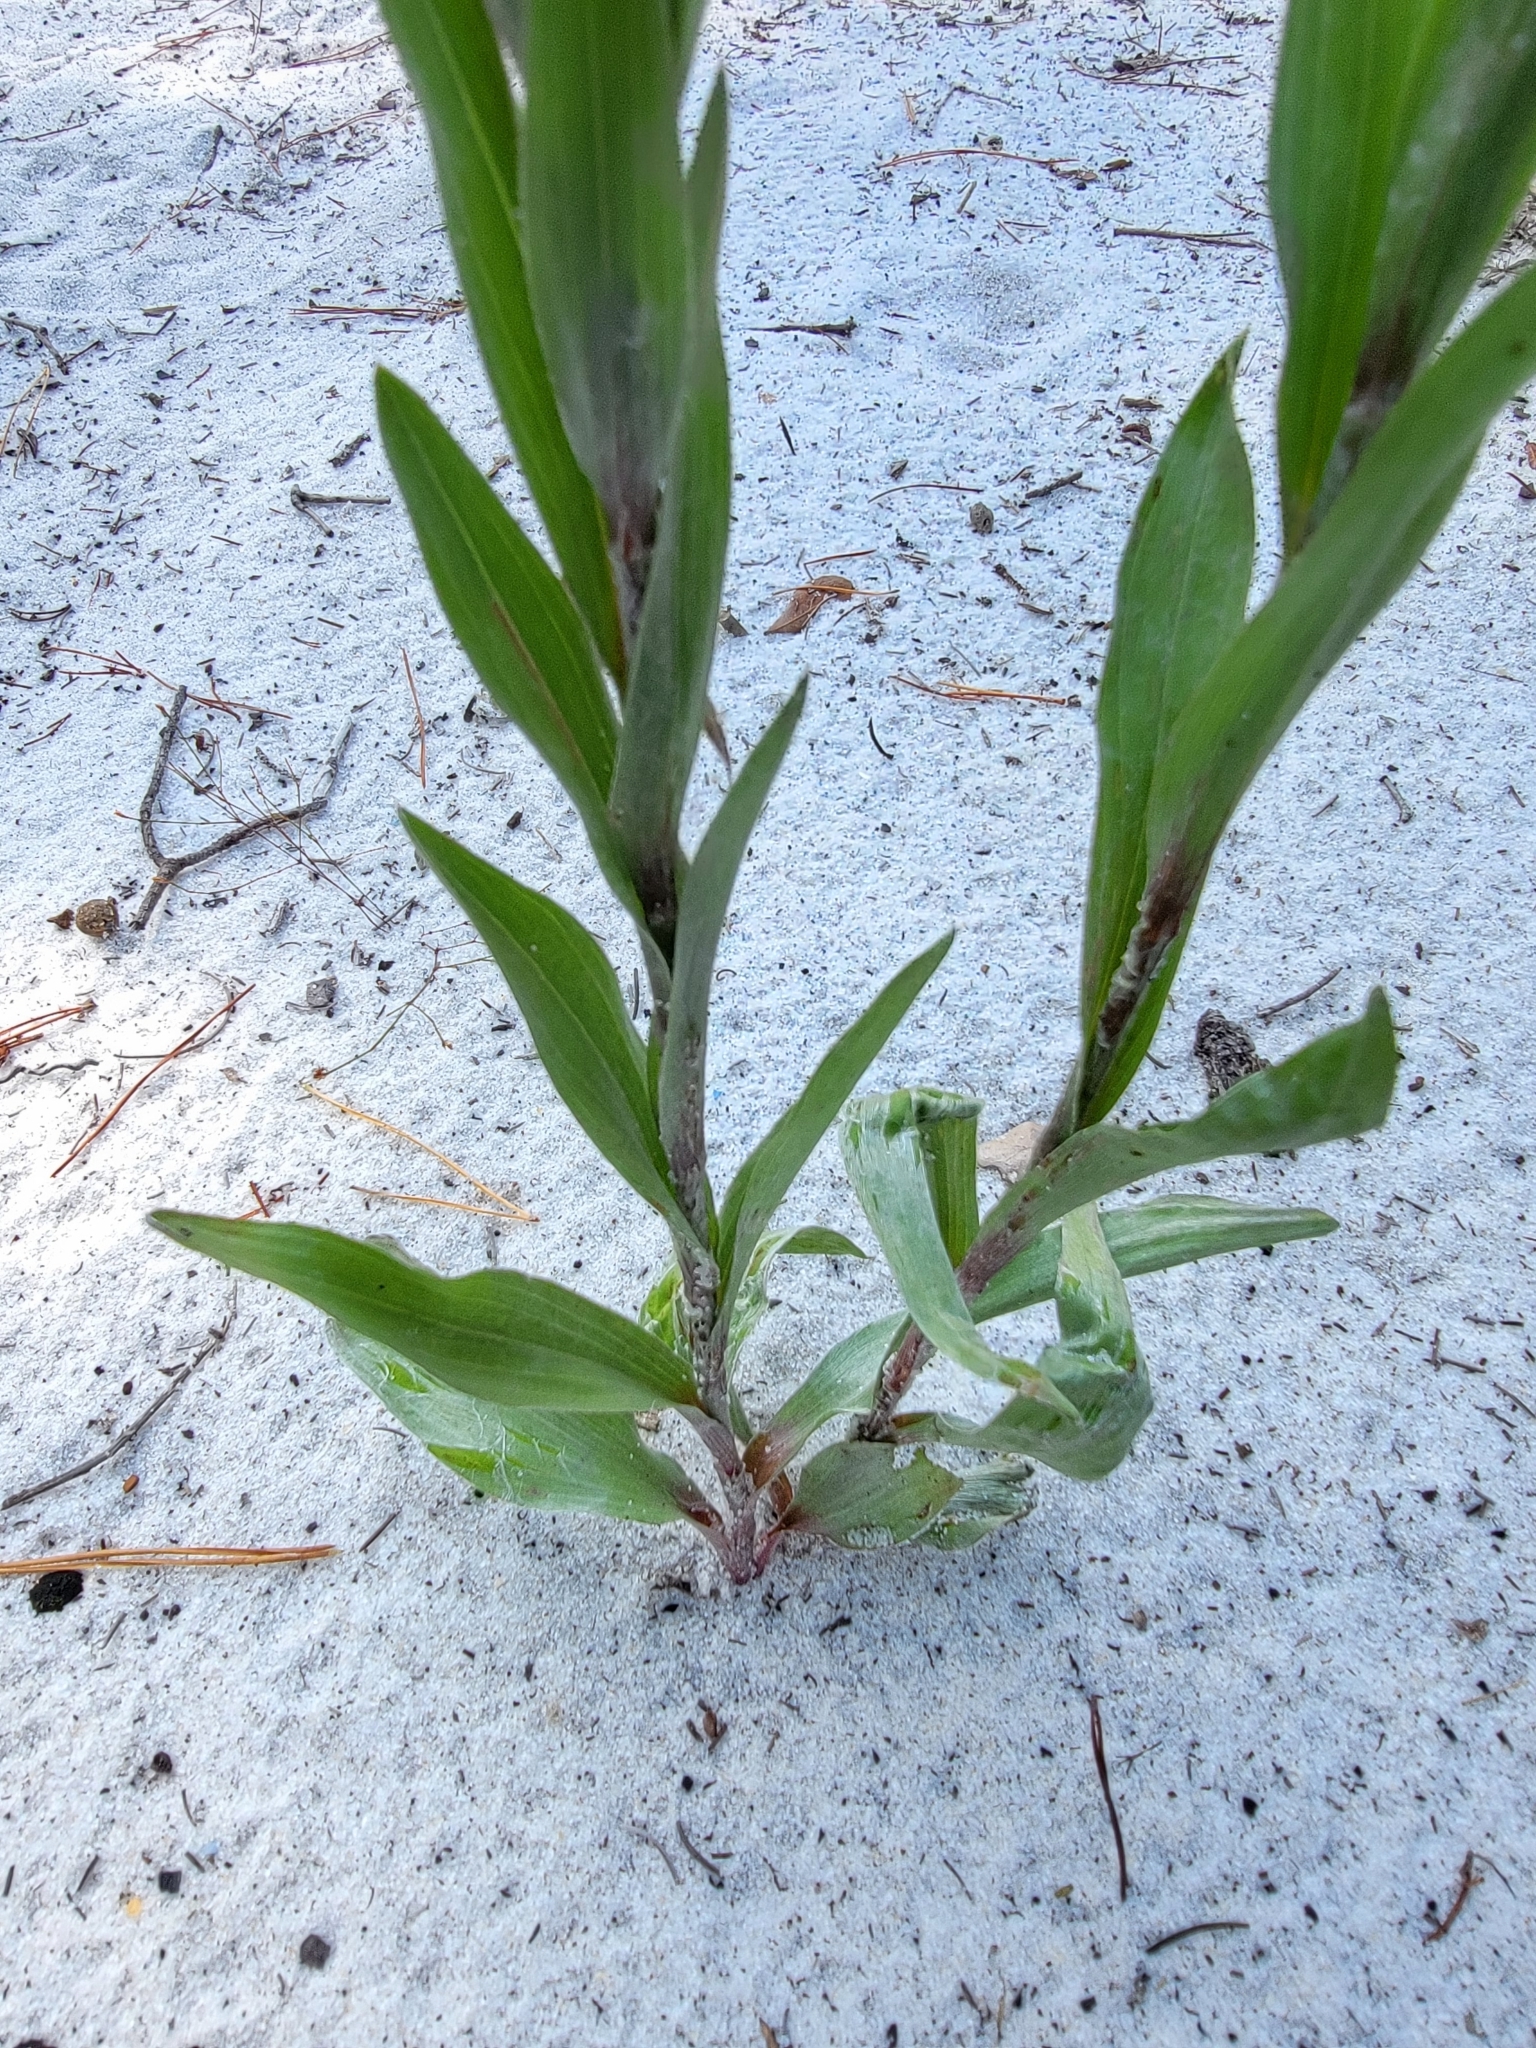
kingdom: Plantae
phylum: Tracheophyta
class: Magnoliopsida
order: Asterales
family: Asteraceae
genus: Pityopsis
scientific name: Pityopsis latifolia
